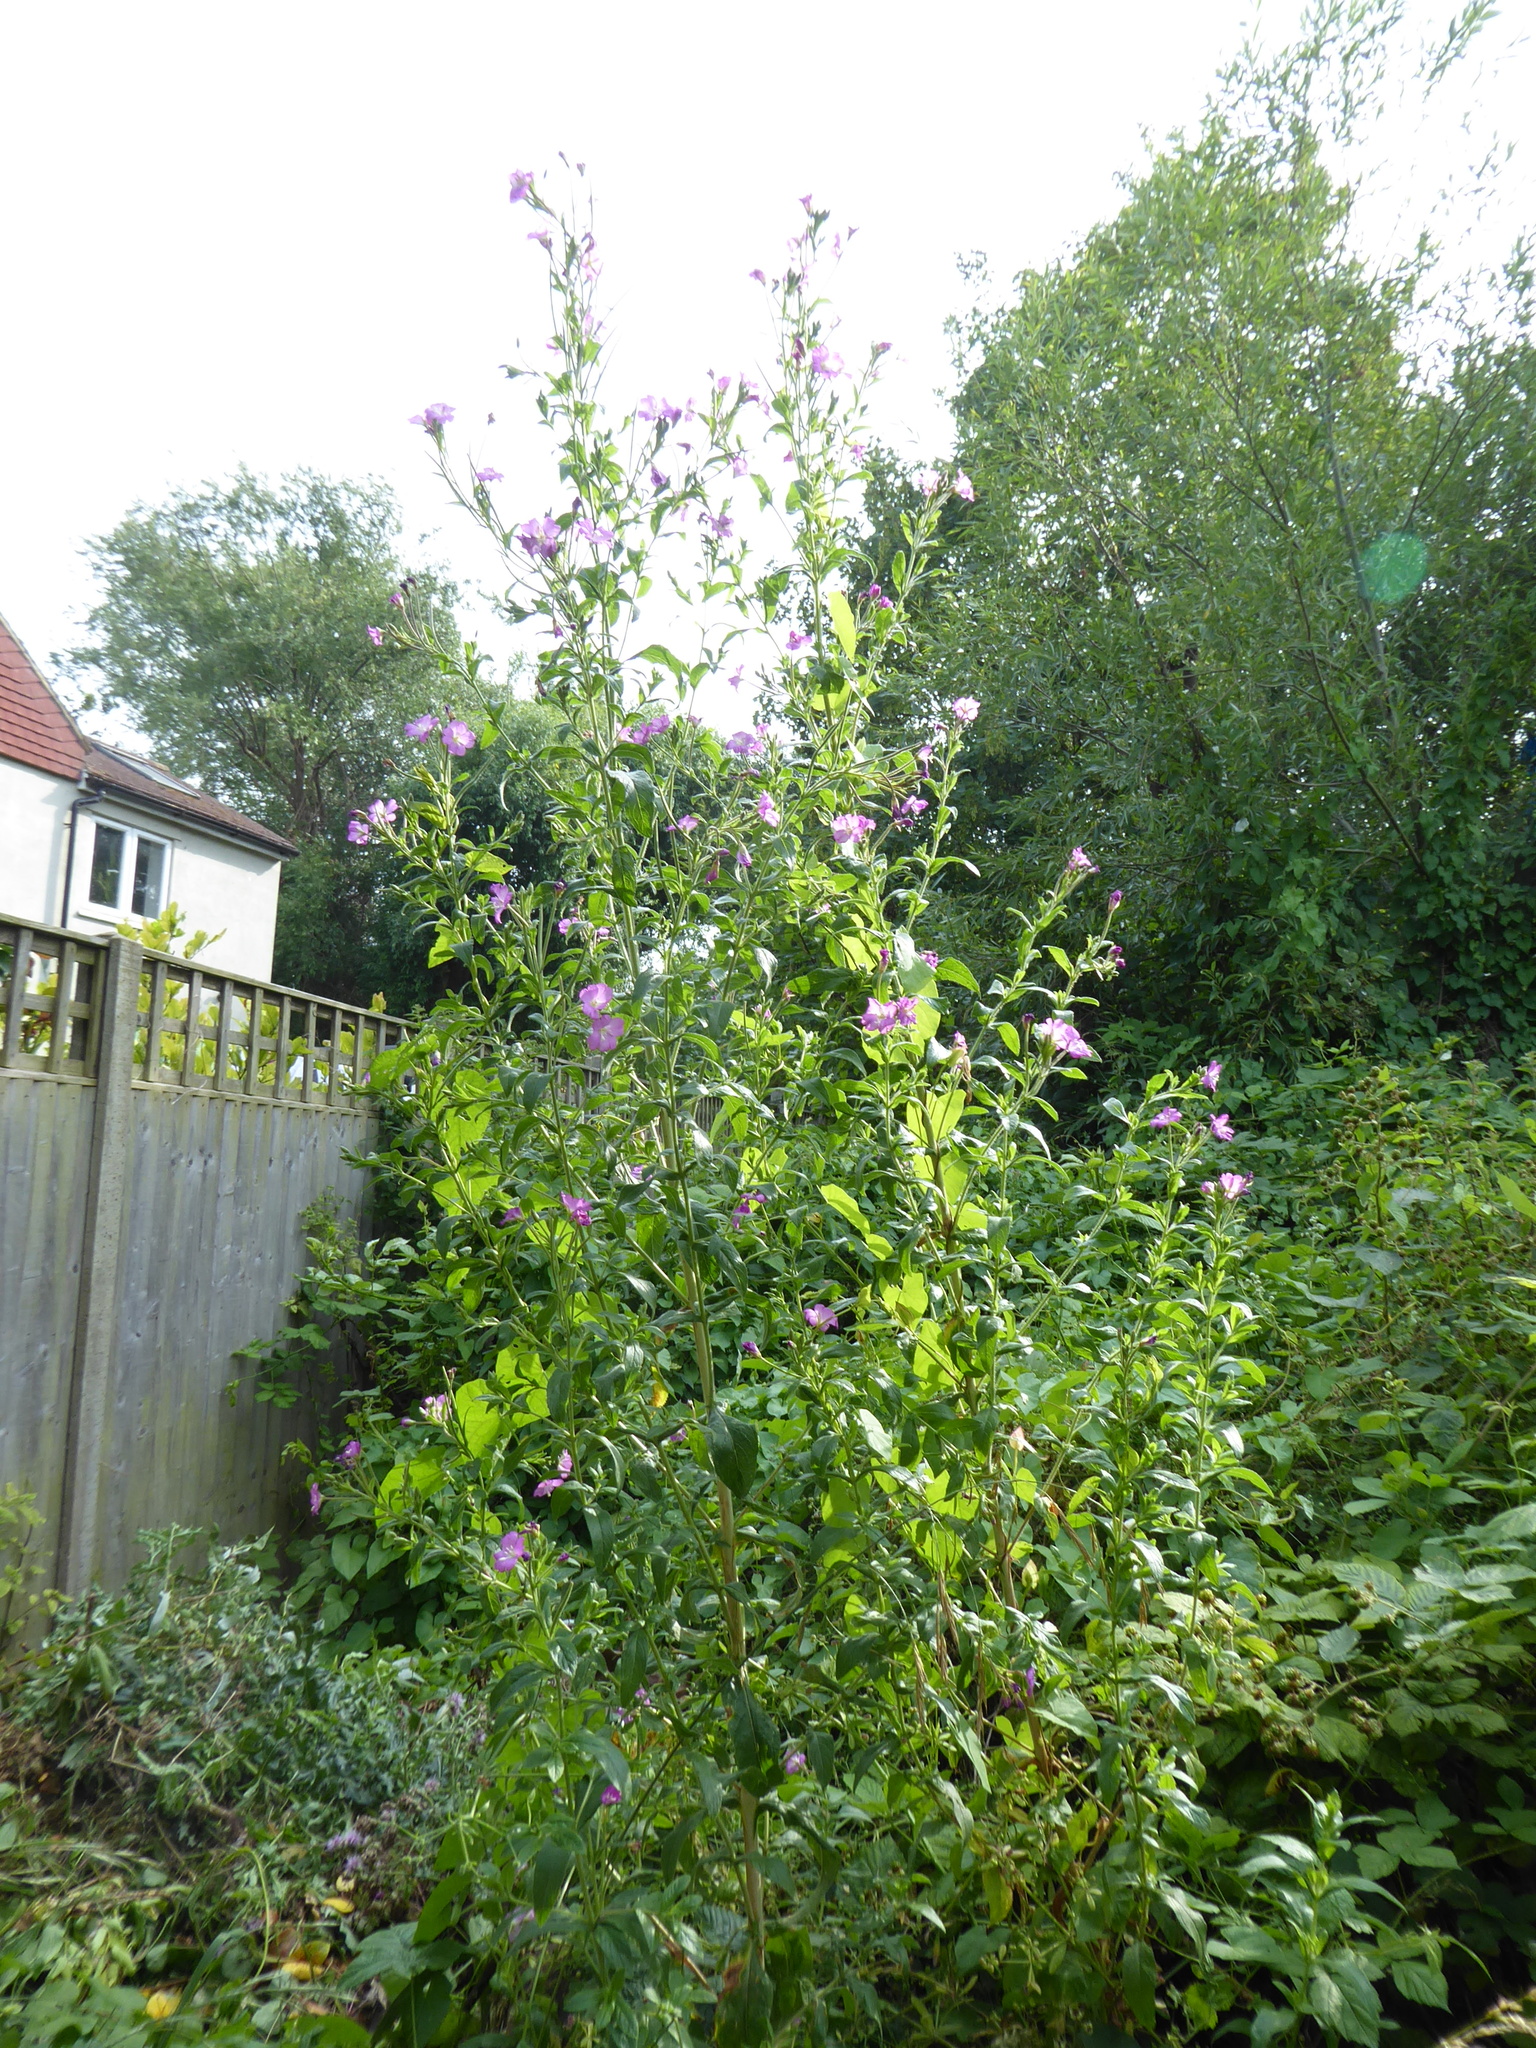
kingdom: Plantae
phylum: Tracheophyta
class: Magnoliopsida
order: Myrtales
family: Onagraceae
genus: Epilobium
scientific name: Epilobium hirsutum
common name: Great willowherb
